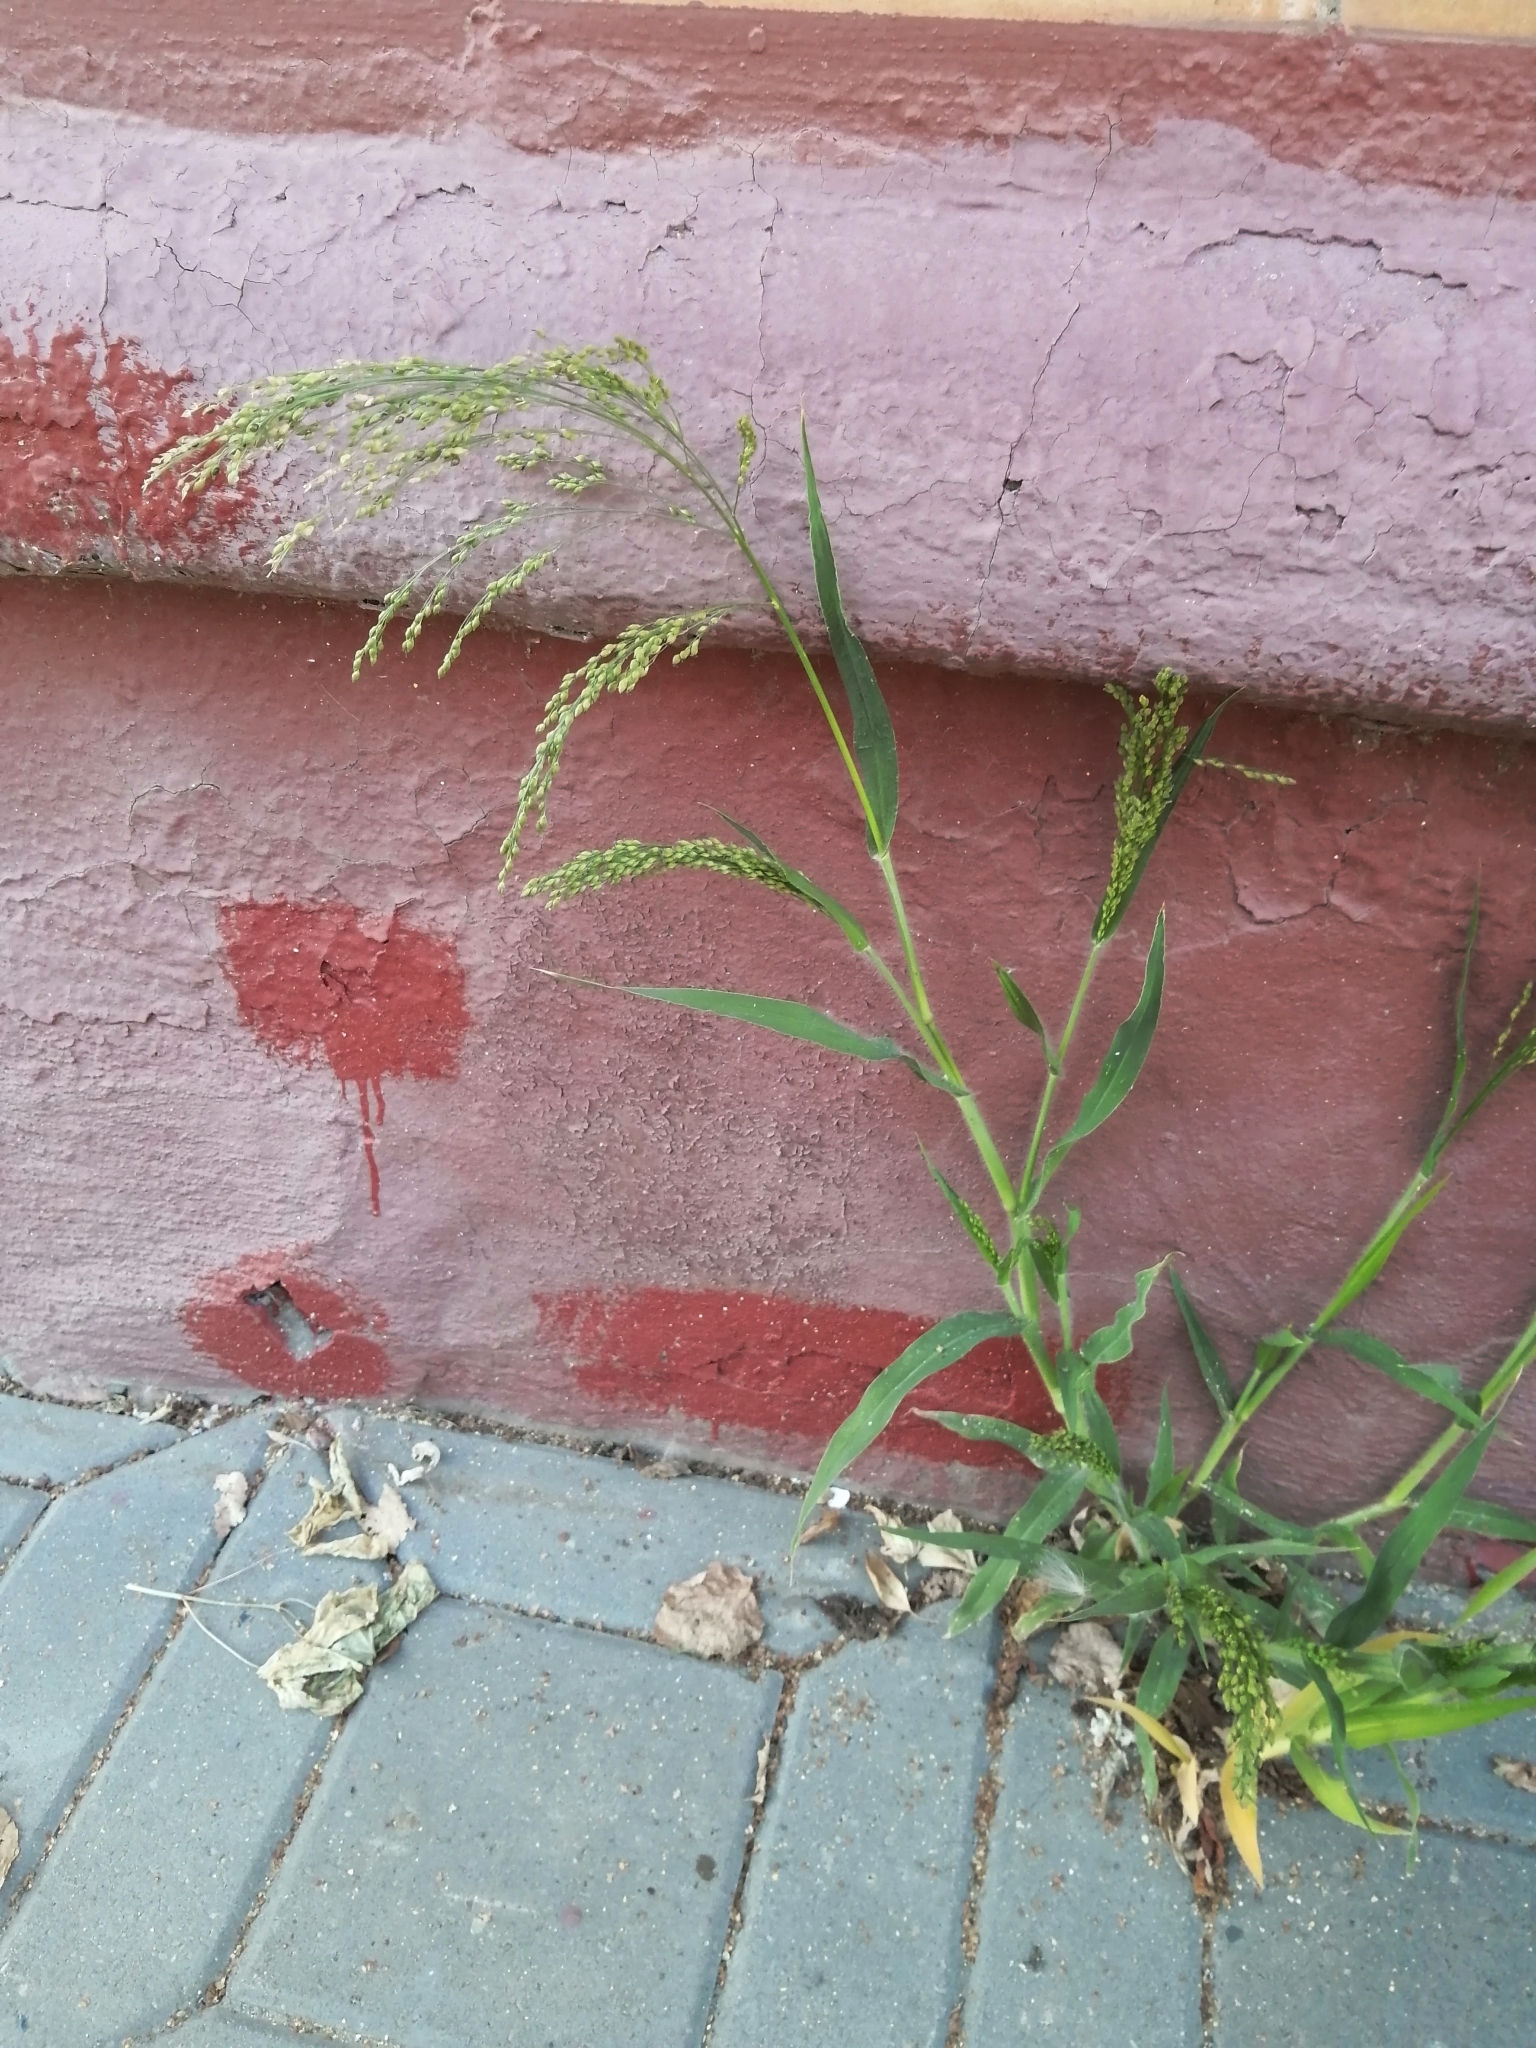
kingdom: Plantae
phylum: Tracheophyta
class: Liliopsida
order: Poales
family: Poaceae
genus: Panicum
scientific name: Panicum miliaceum
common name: Common millet
